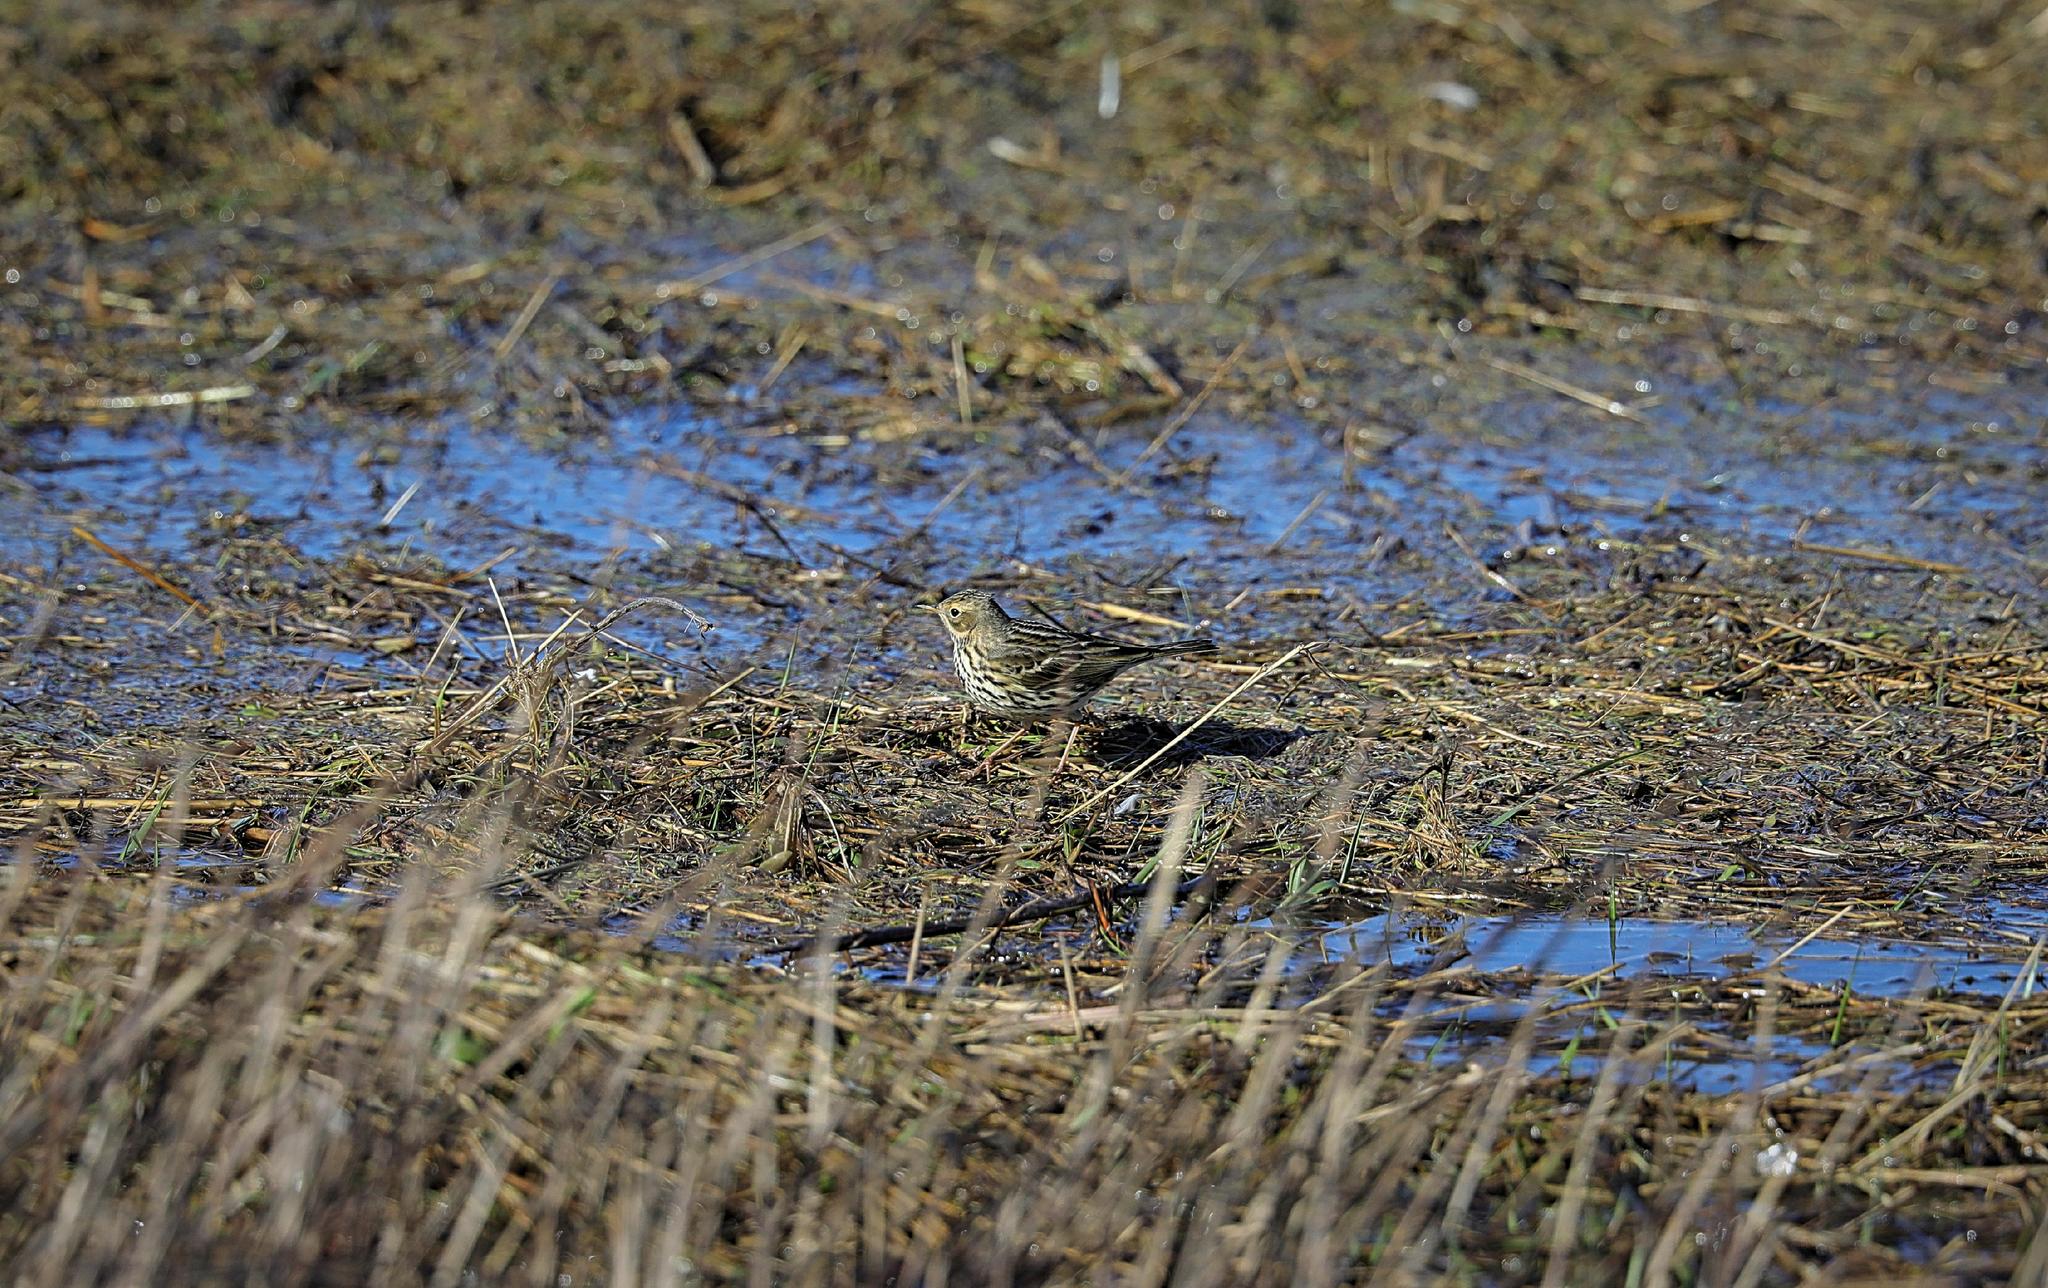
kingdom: Animalia
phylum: Chordata
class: Aves
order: Passeriformes
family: Motacillidae
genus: Anthus
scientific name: Anthus pratensis
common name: Meadow pipit
